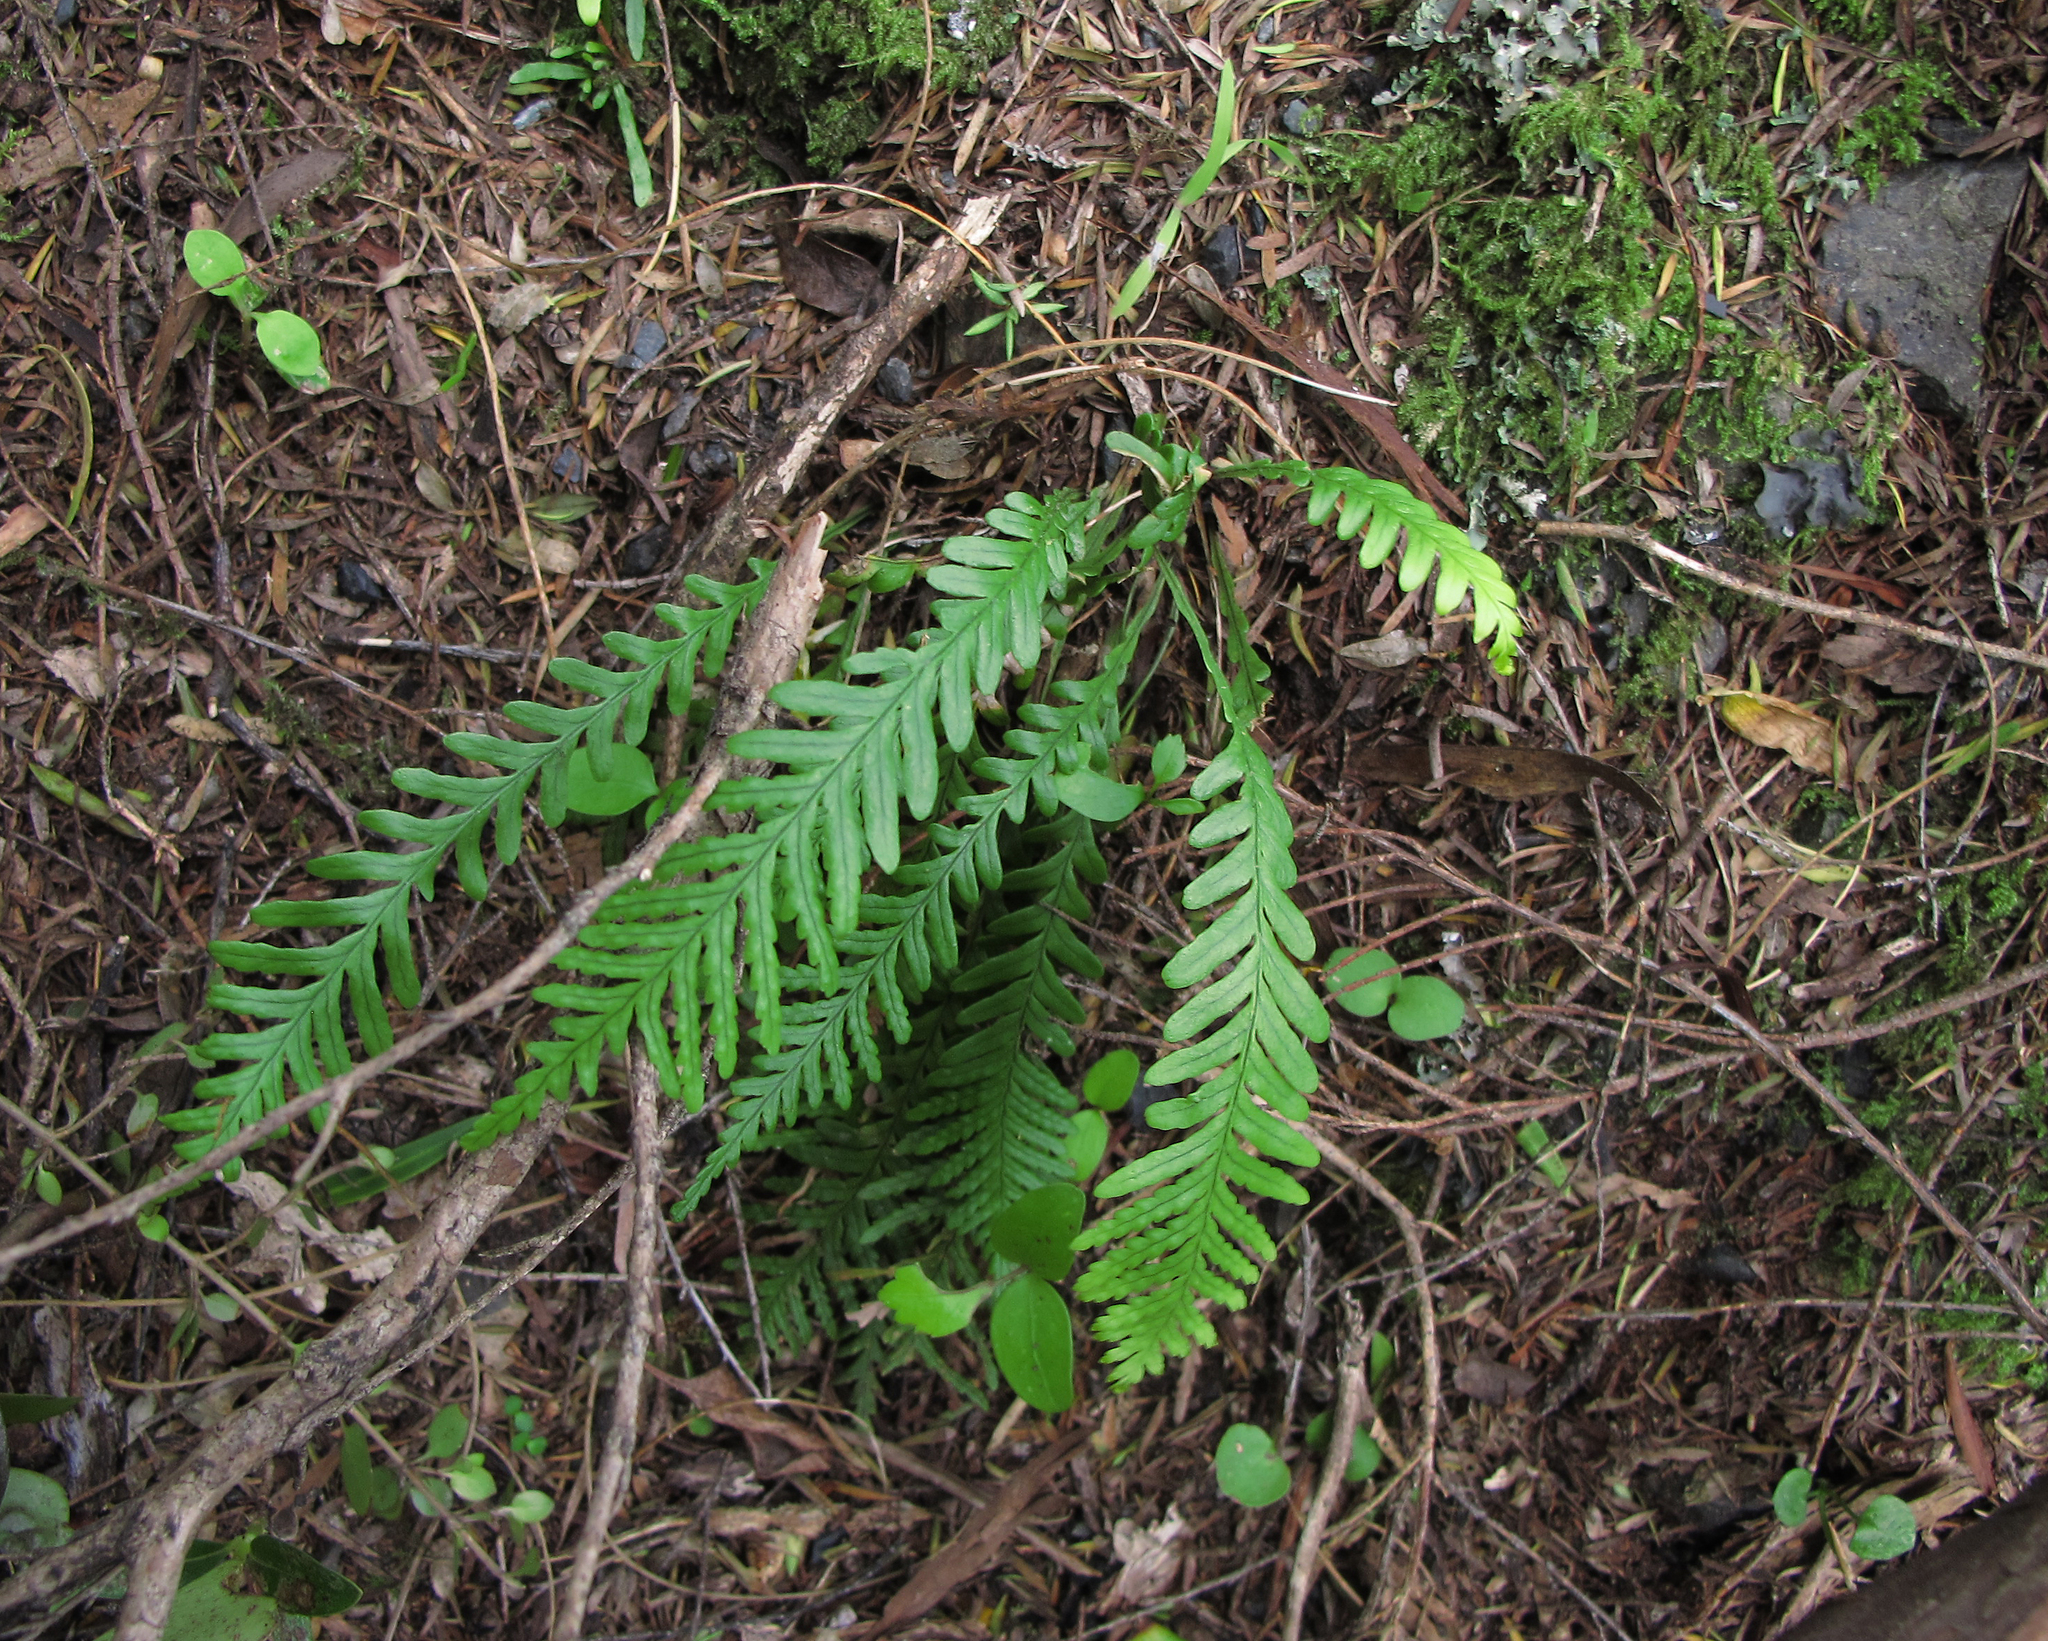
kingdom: Plantae
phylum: Tracheophyta
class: Polypodiopsida
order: Polypodiales
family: Polypodiaceae
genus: Notogrammitis
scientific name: Notogrammitis heterophylla
